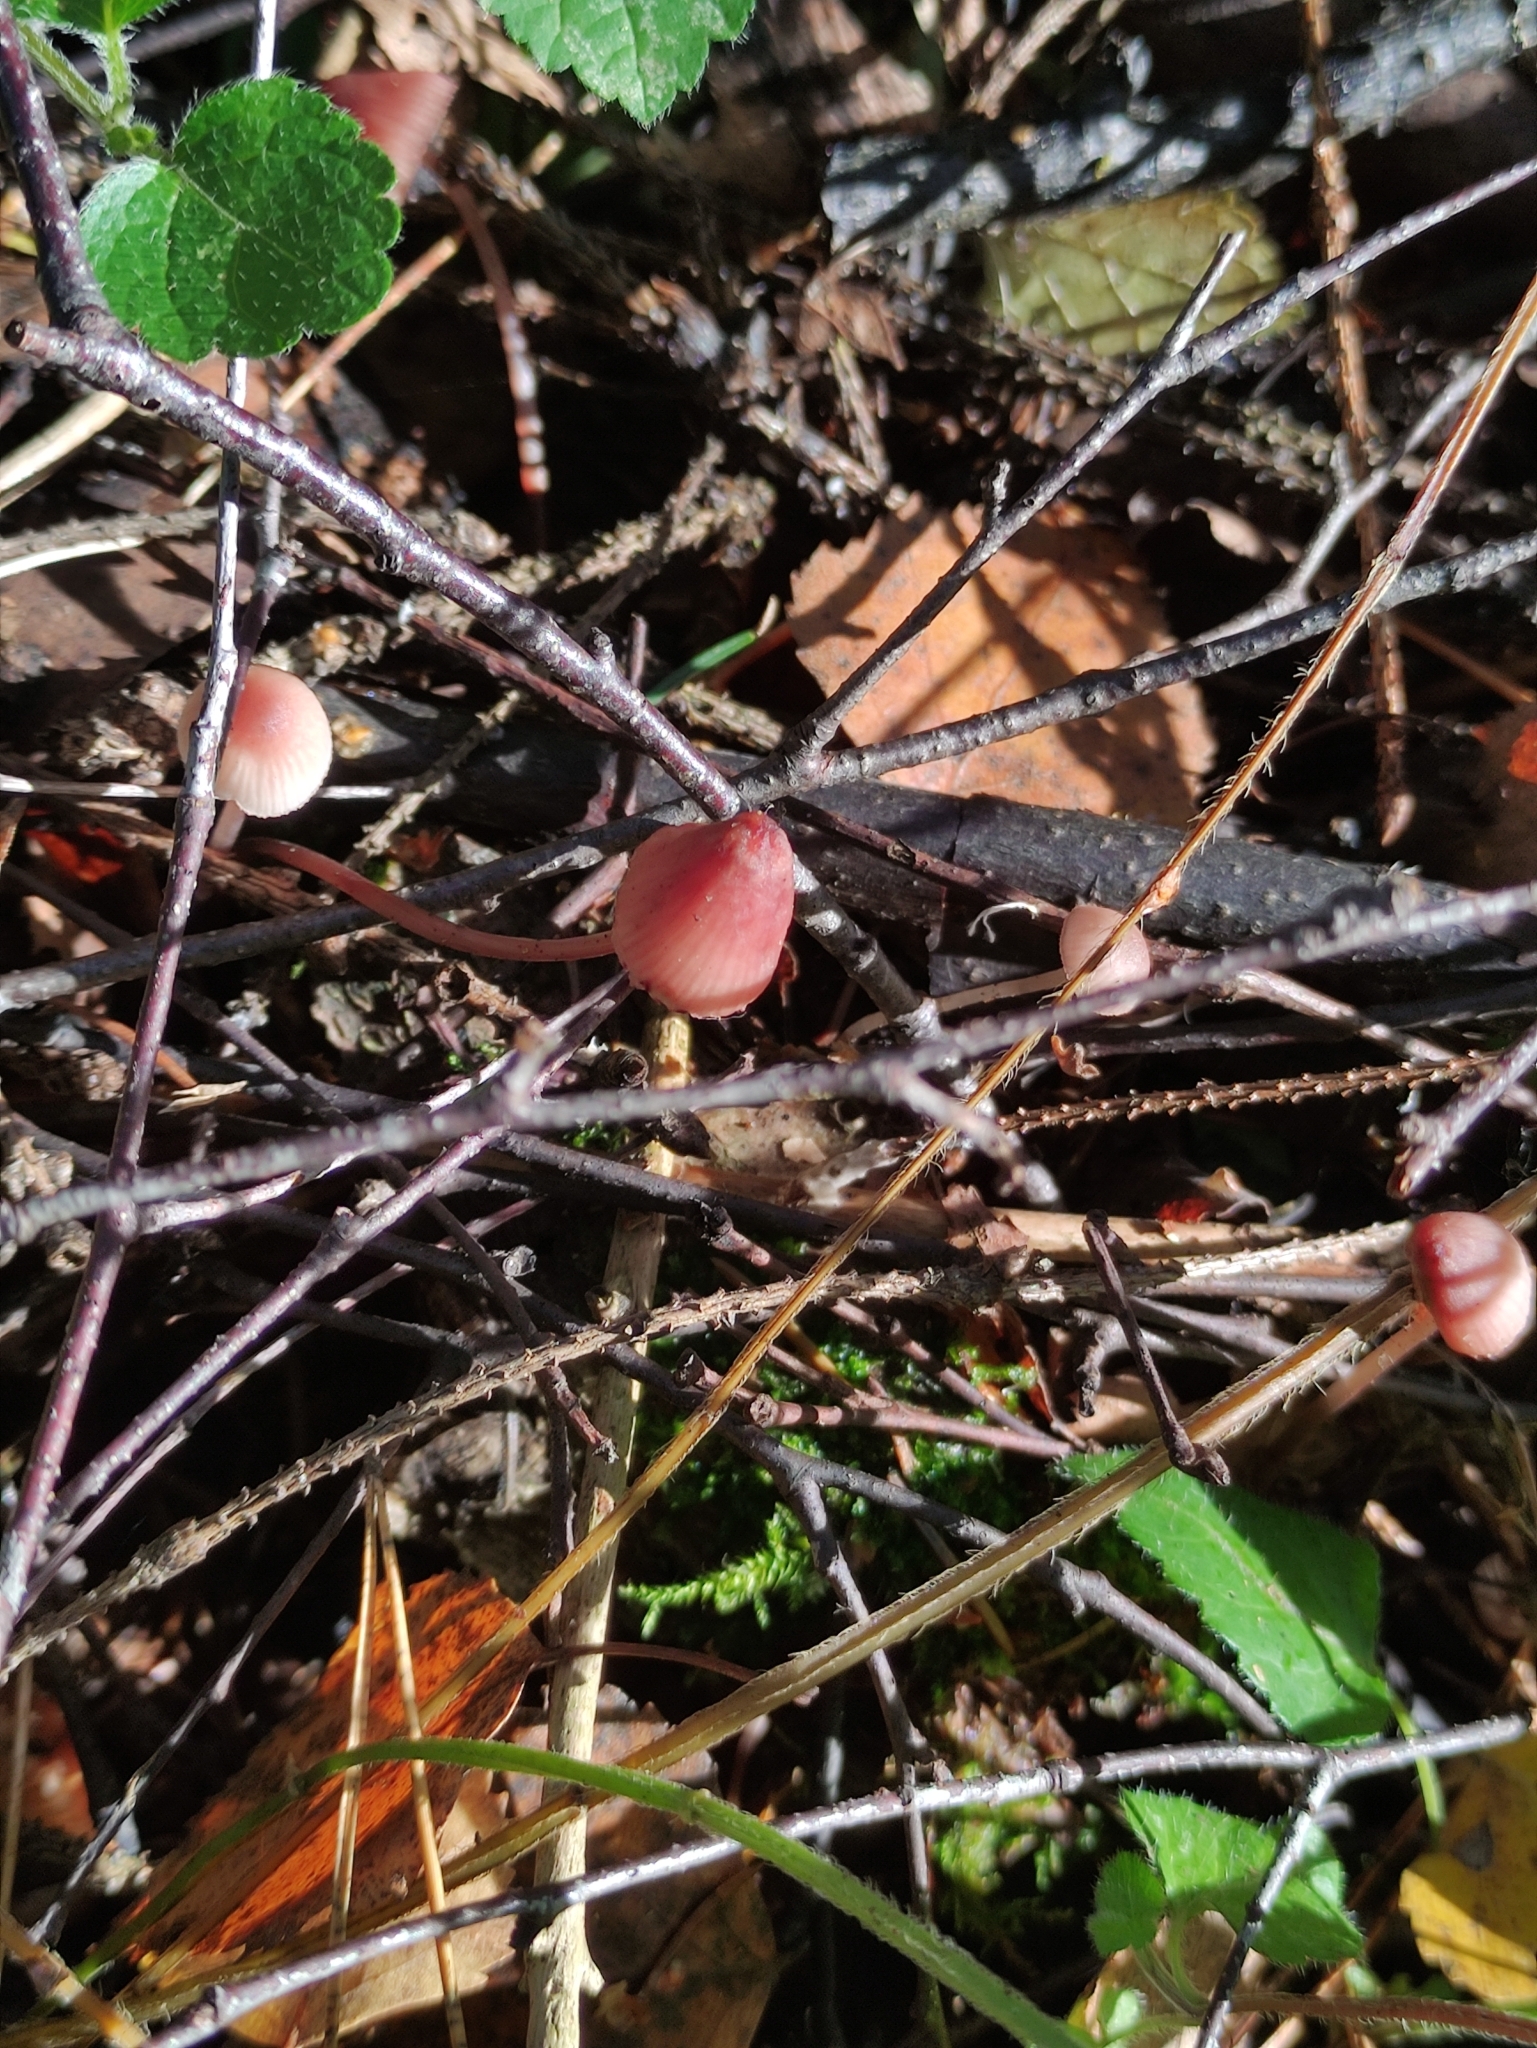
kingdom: Fungi
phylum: Basidiomycota
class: Agaricomycetes
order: Agaricales
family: Mycenaceae
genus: Mycena
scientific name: Mycena sanguinolenta
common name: Bleeding bonnet
